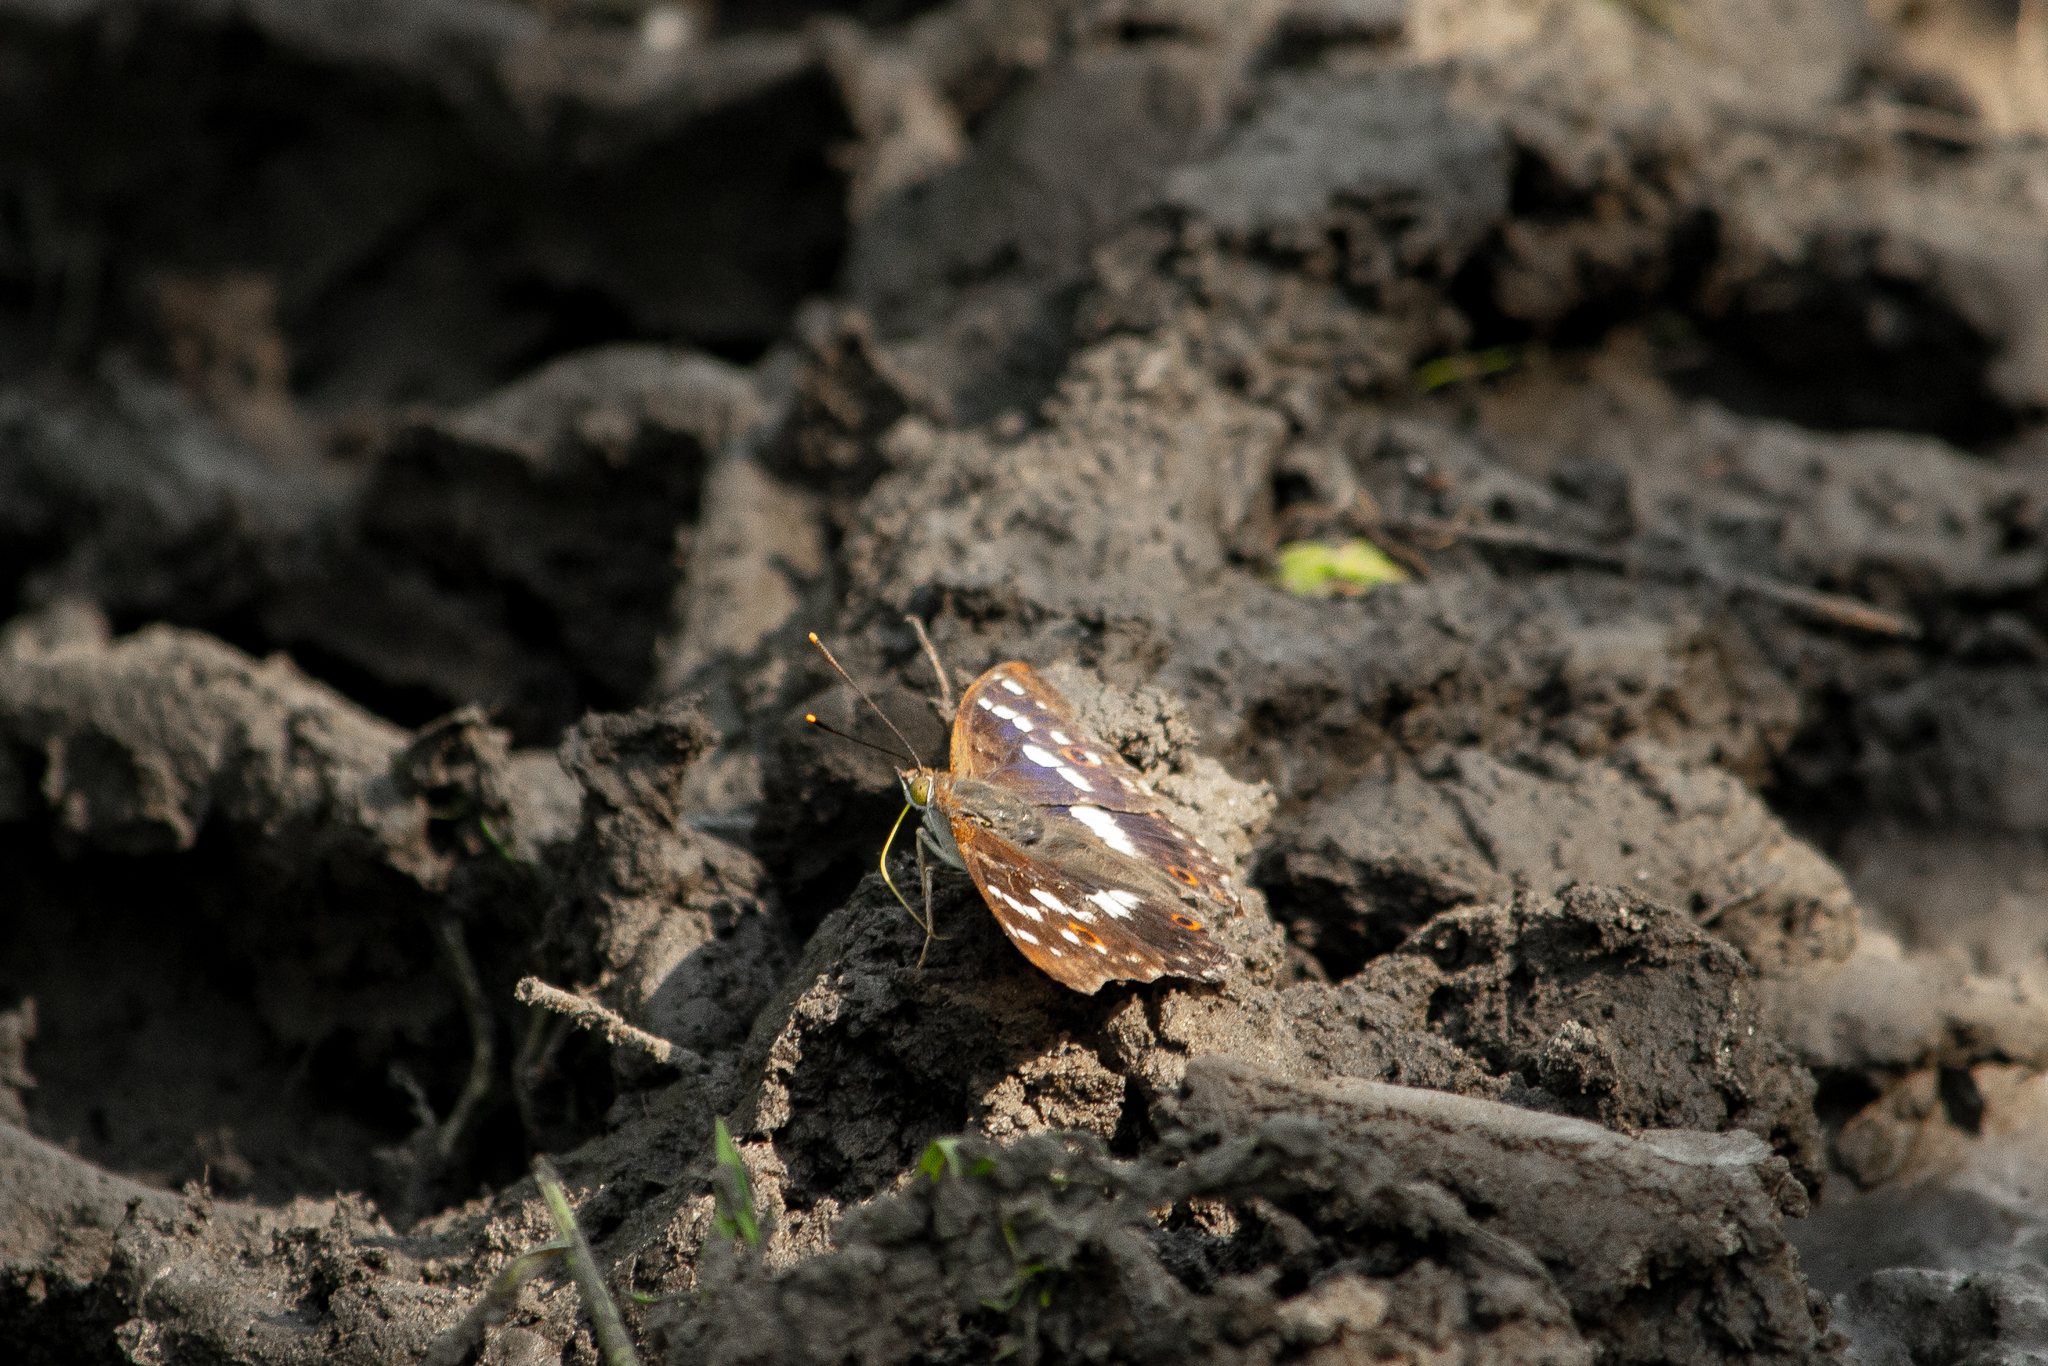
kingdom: Animalia
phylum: Arthropoda
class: Insecta
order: Lepidoptera
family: Nymphalidae
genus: Apatura
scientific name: Apatura ilia
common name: Lesser purple emperor
